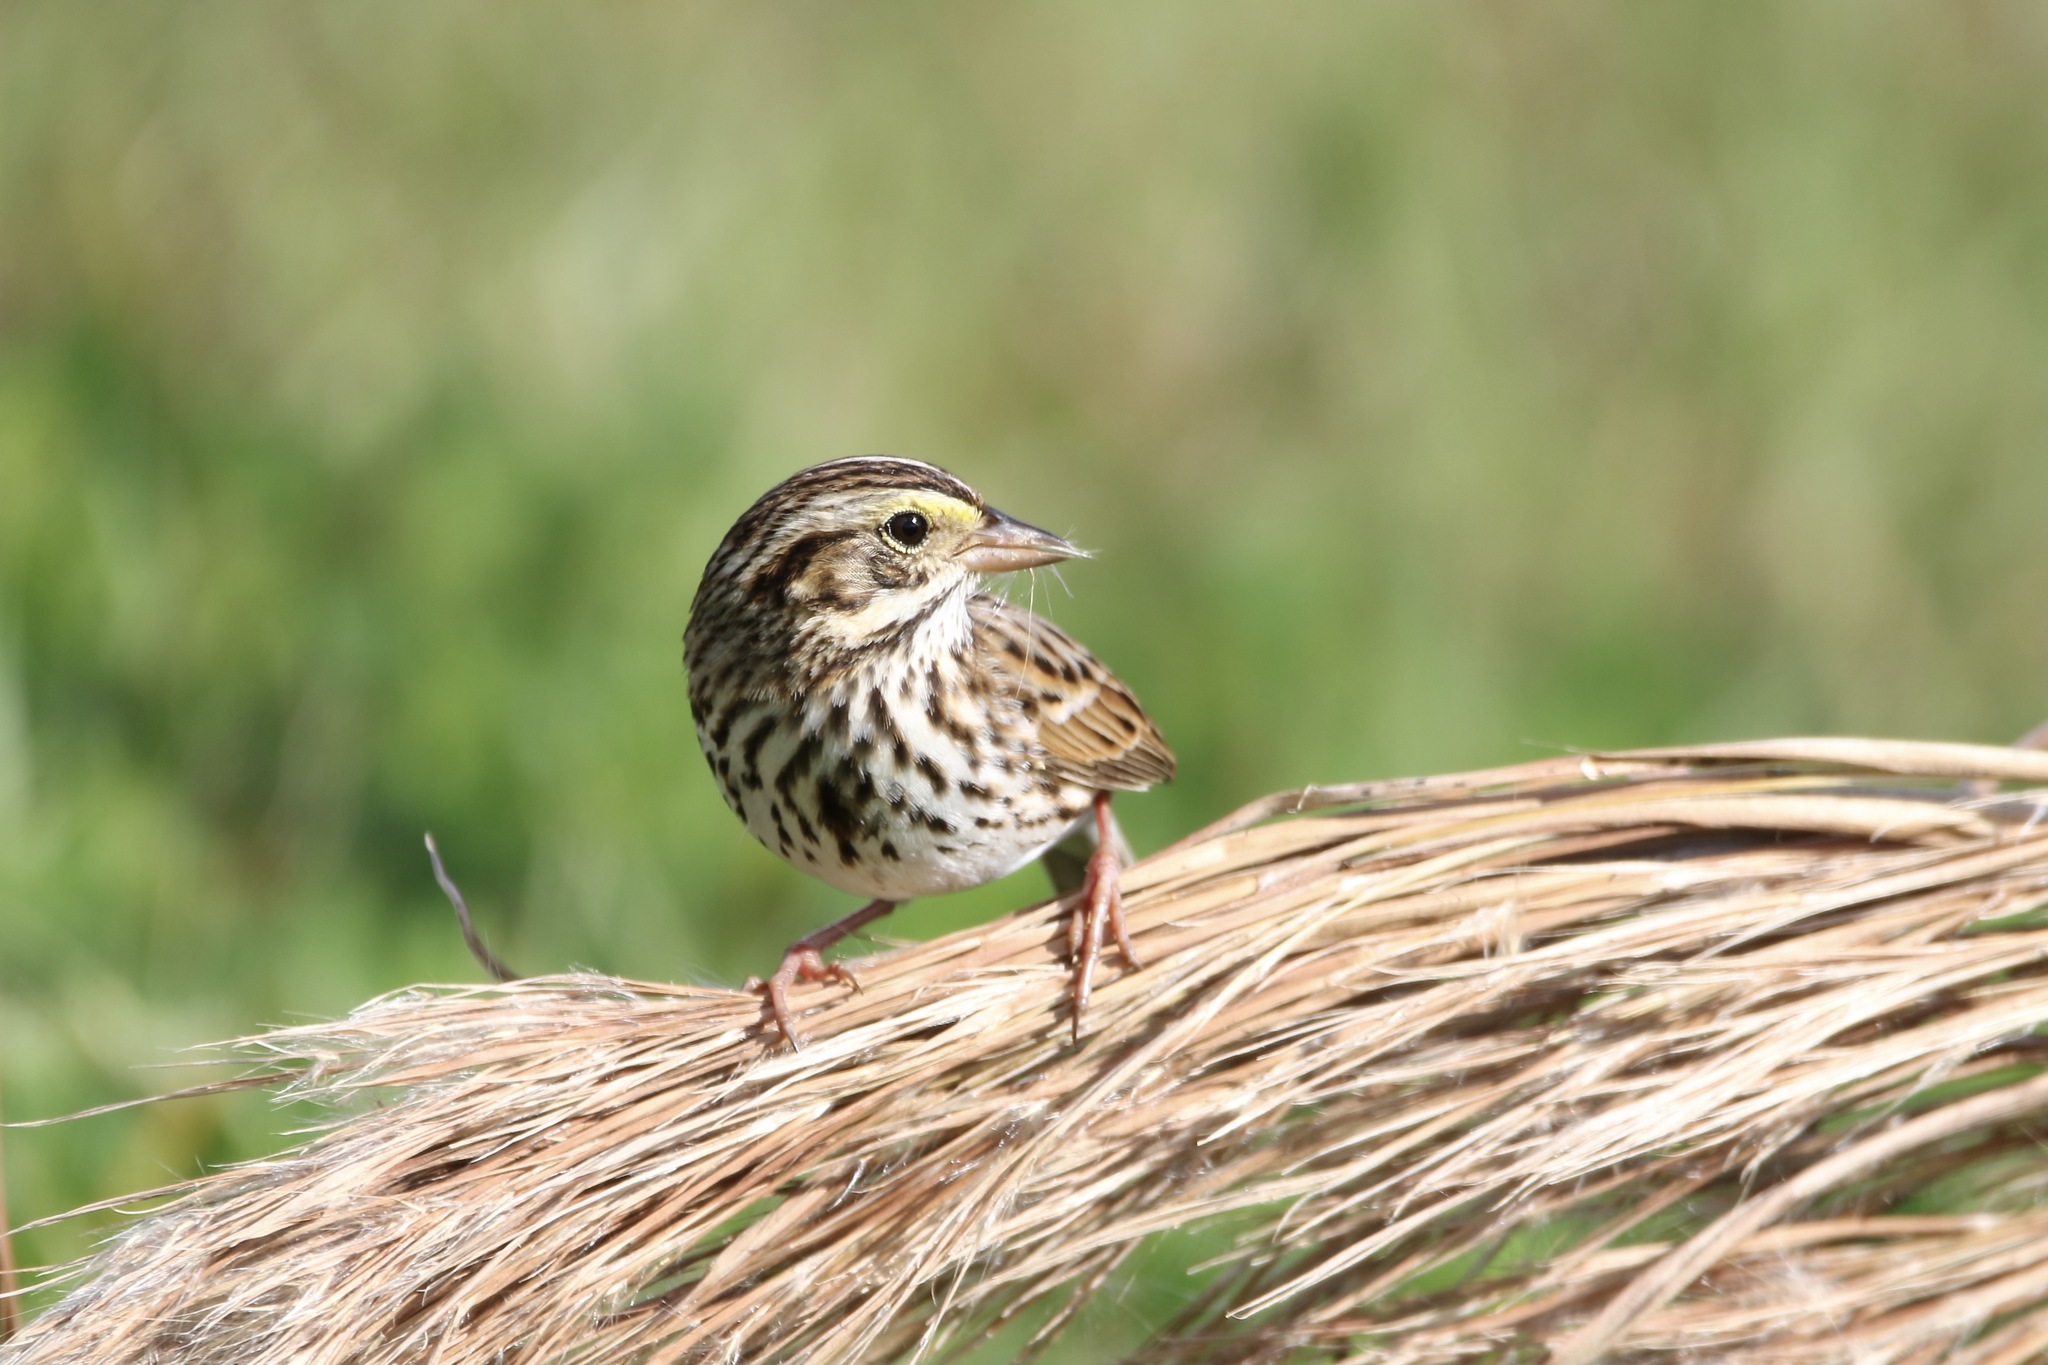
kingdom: Animalia
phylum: Chordata
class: Aves
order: Passeriformes
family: Passerellidae
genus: Passerculus
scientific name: Passerculus sandwichensis
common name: Savannah sparrow
